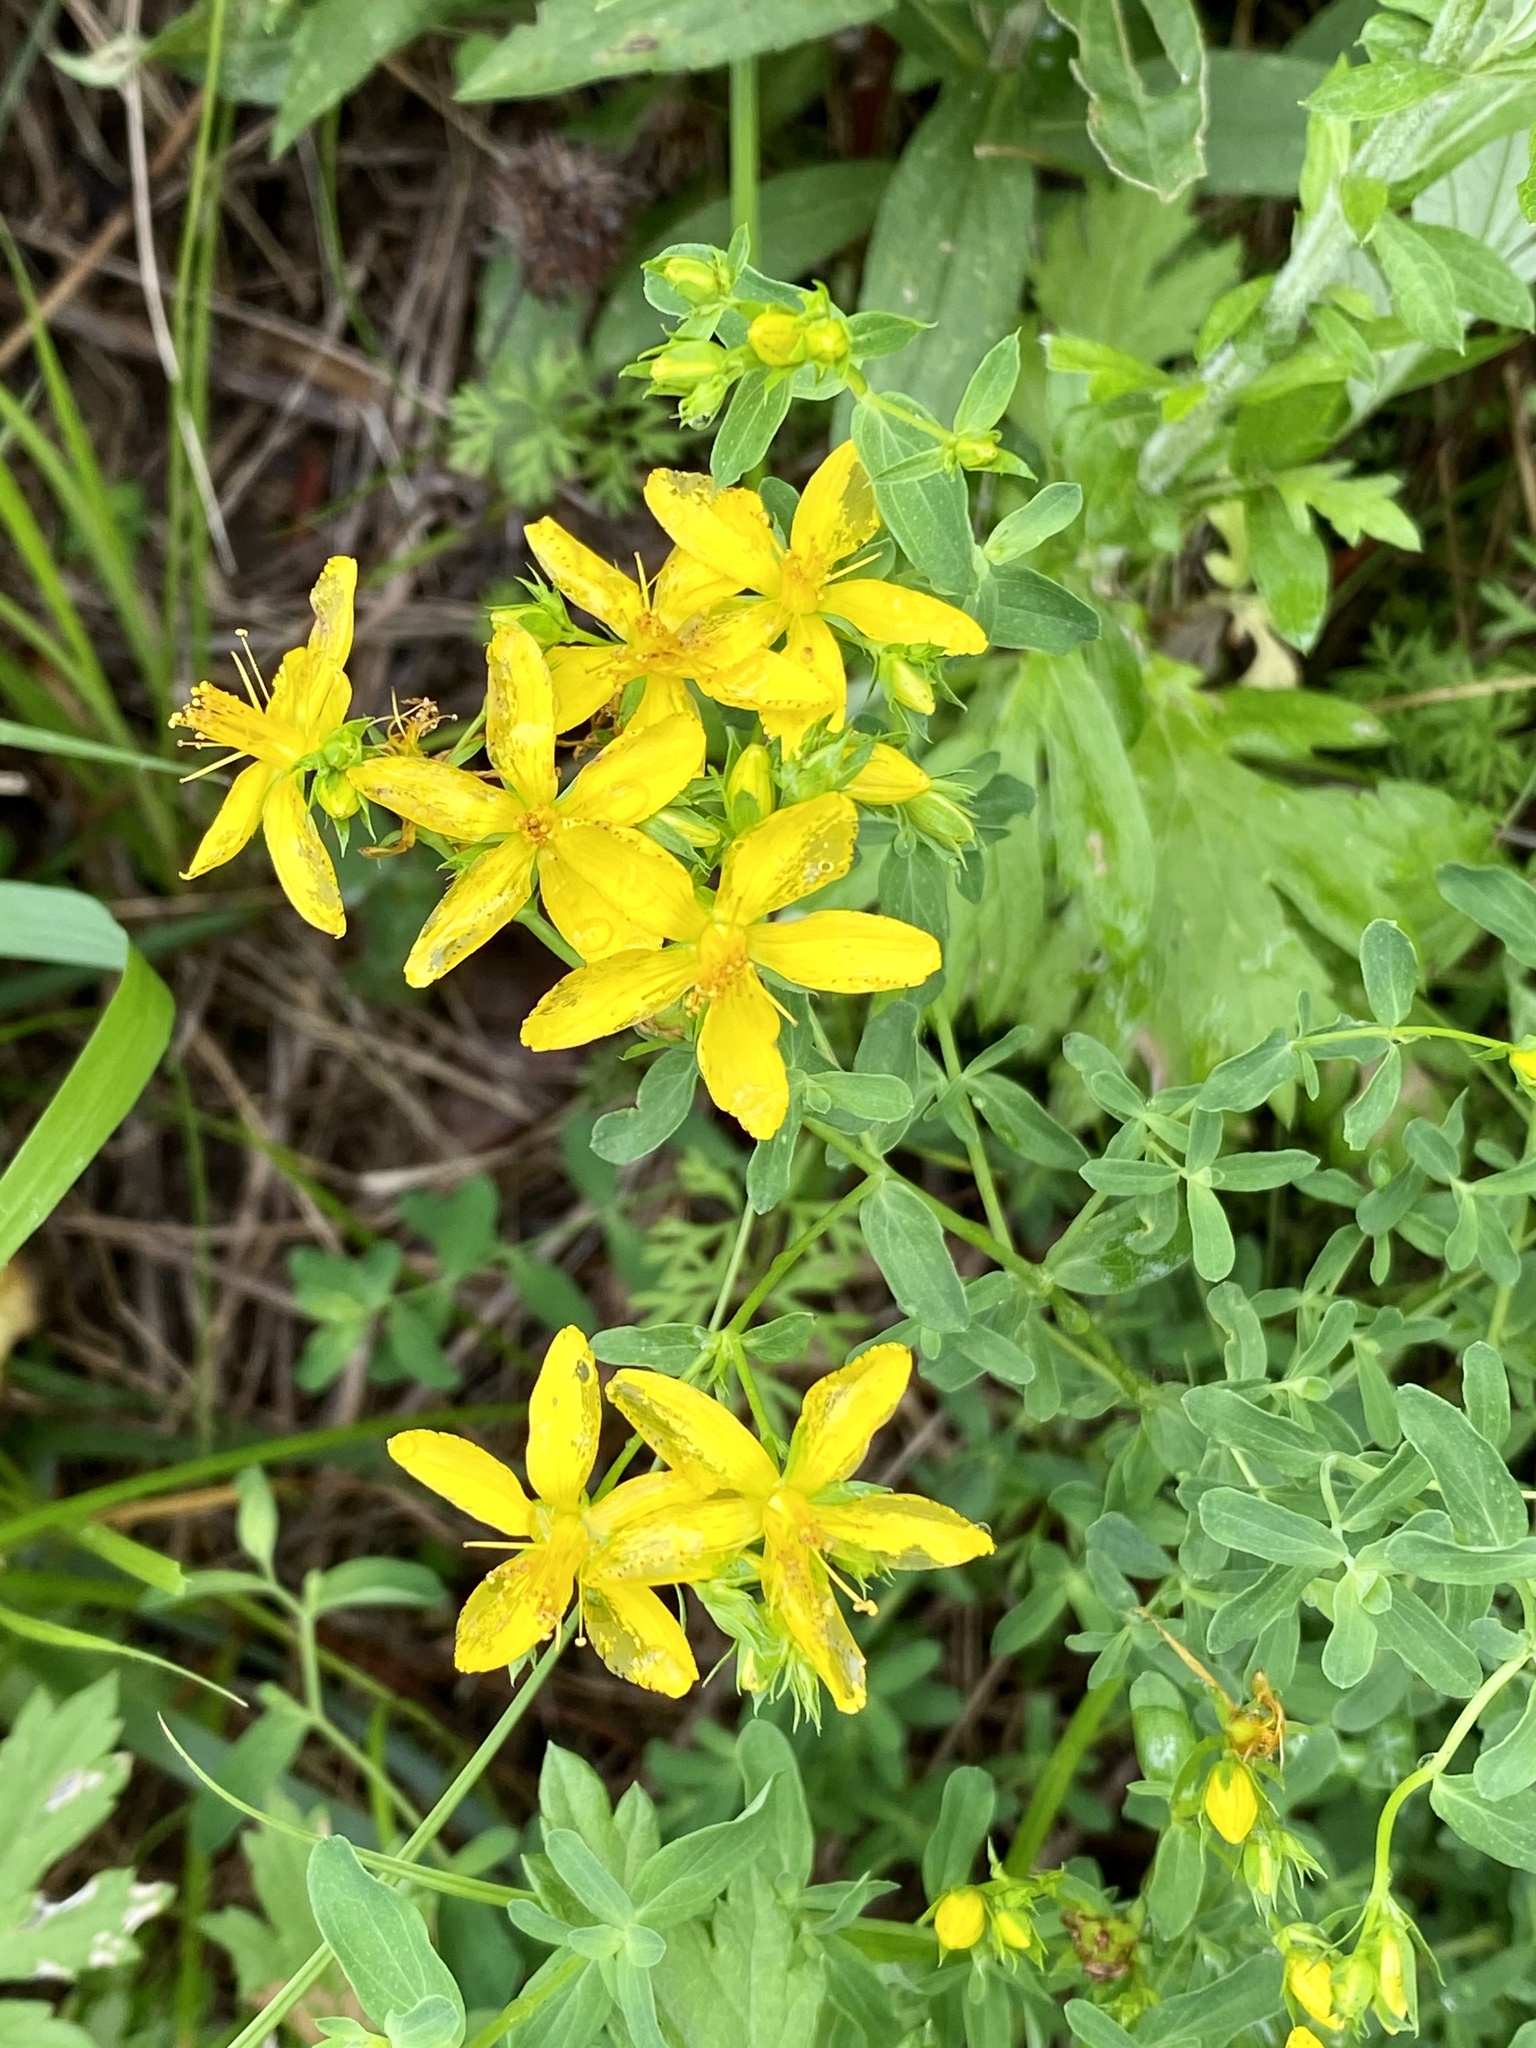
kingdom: Plantae
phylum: Tracheophyta
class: Magnoliopsida
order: Malpighiales
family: Hypericaceae
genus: Hypericum
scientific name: Hypericum perforatum
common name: Common st. johnswort
